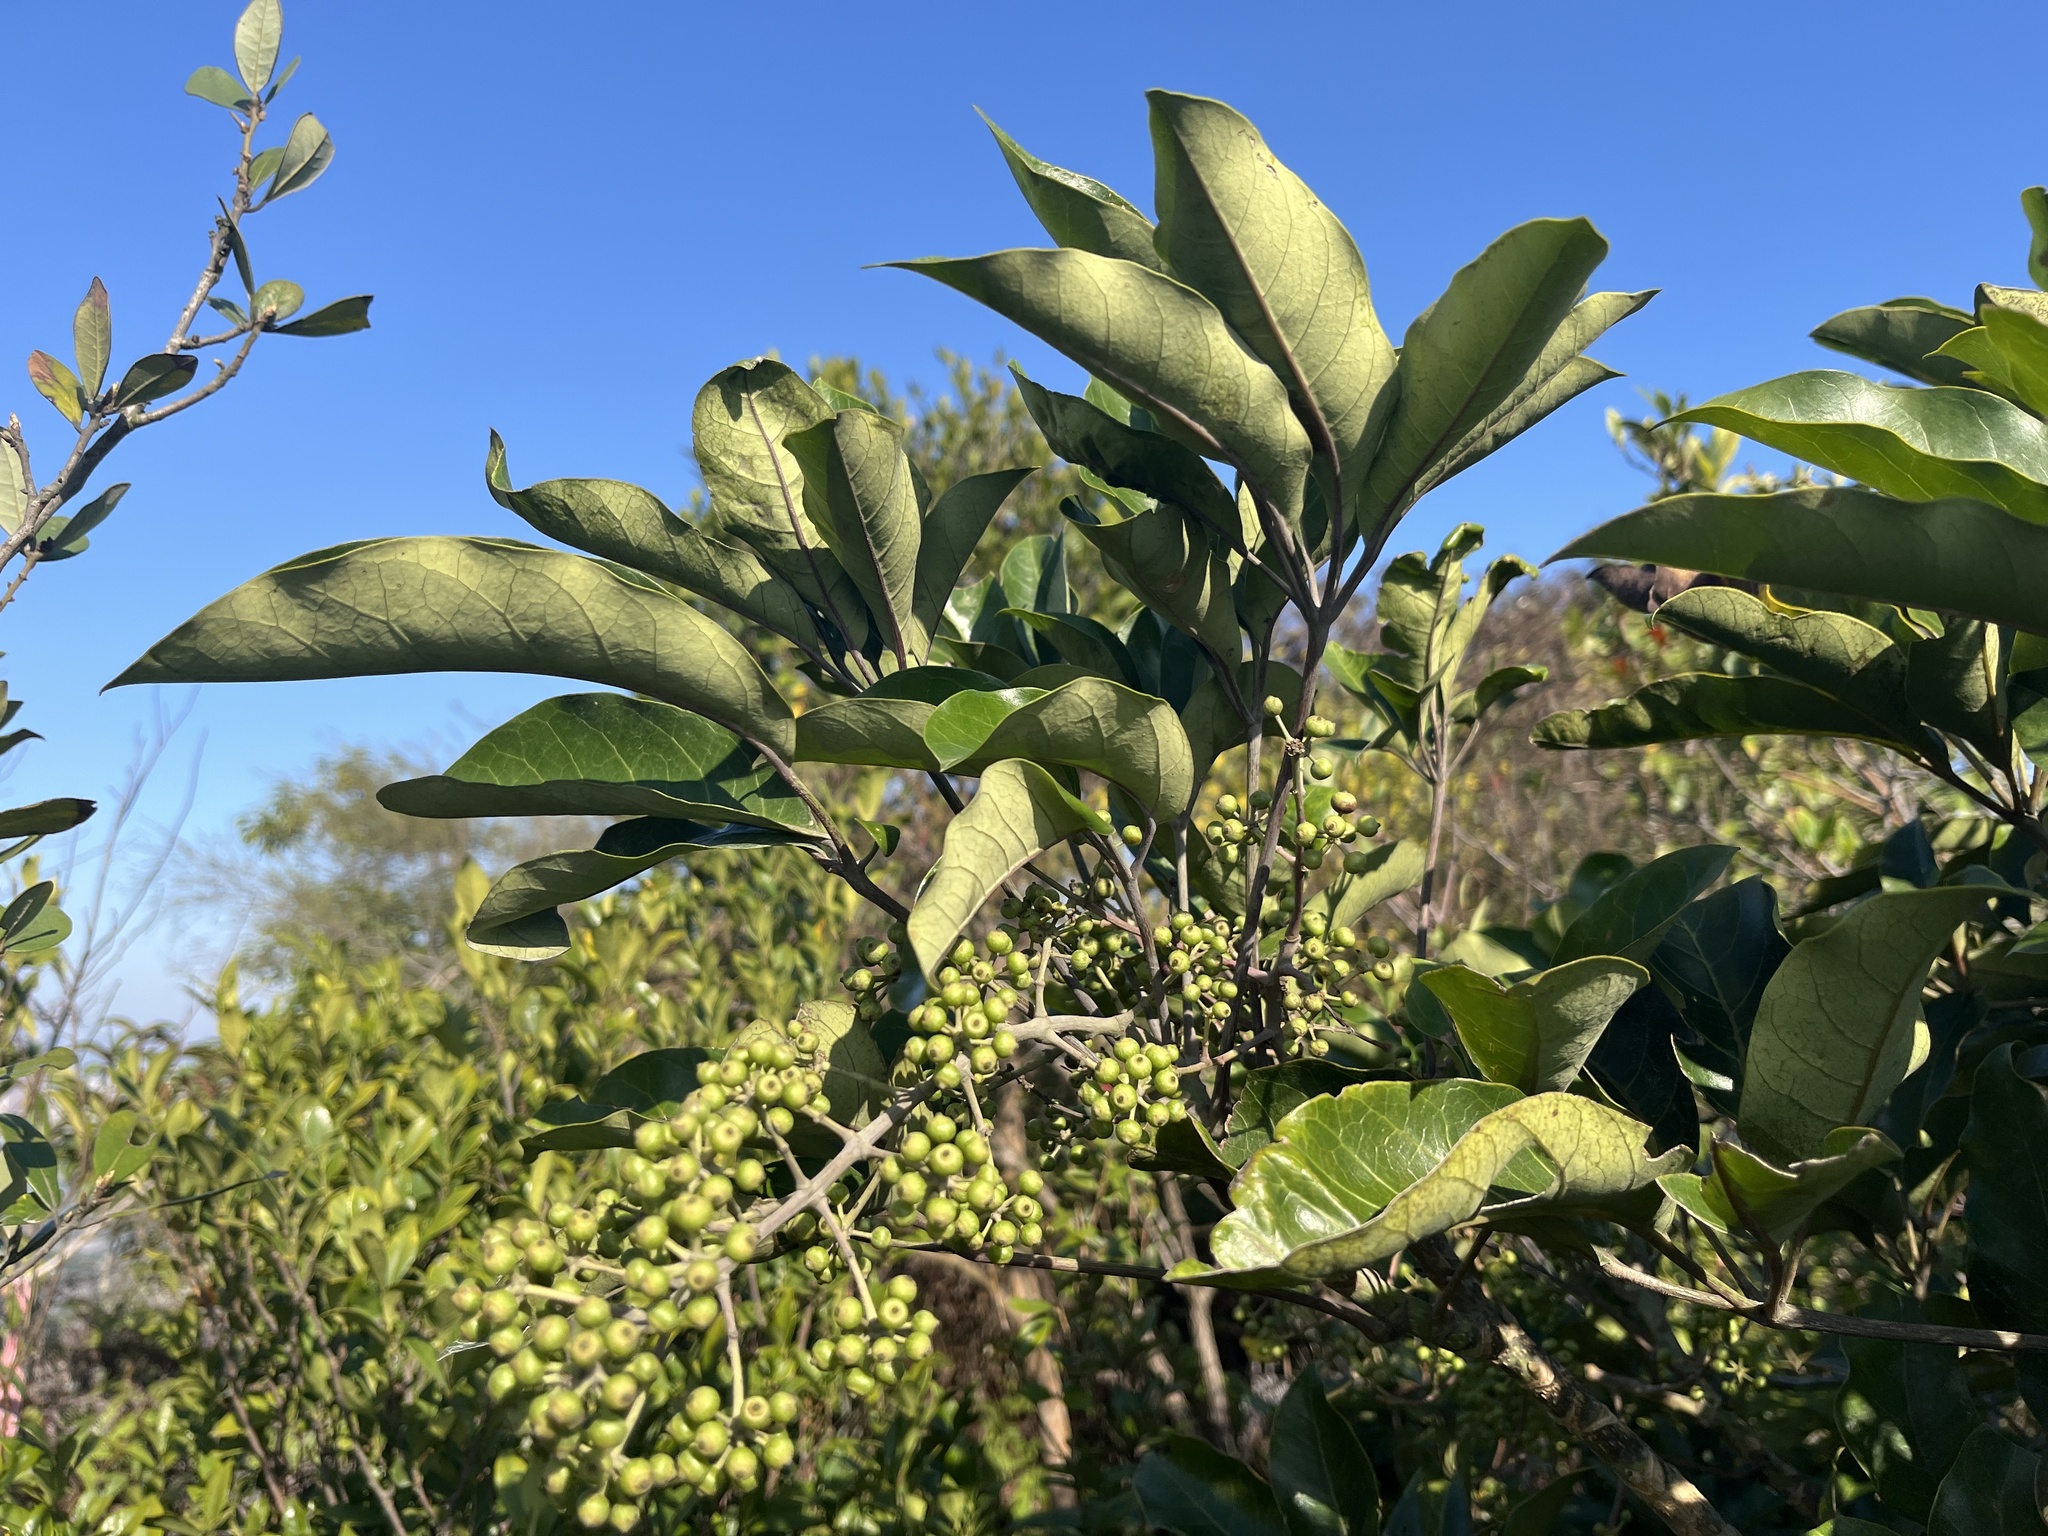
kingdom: Plantae
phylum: Tracheophyta
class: Magnoliopsida
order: Apiales
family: Araliaceae
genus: Heptapleurum
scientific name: Heptapleurum heptaphyllum
